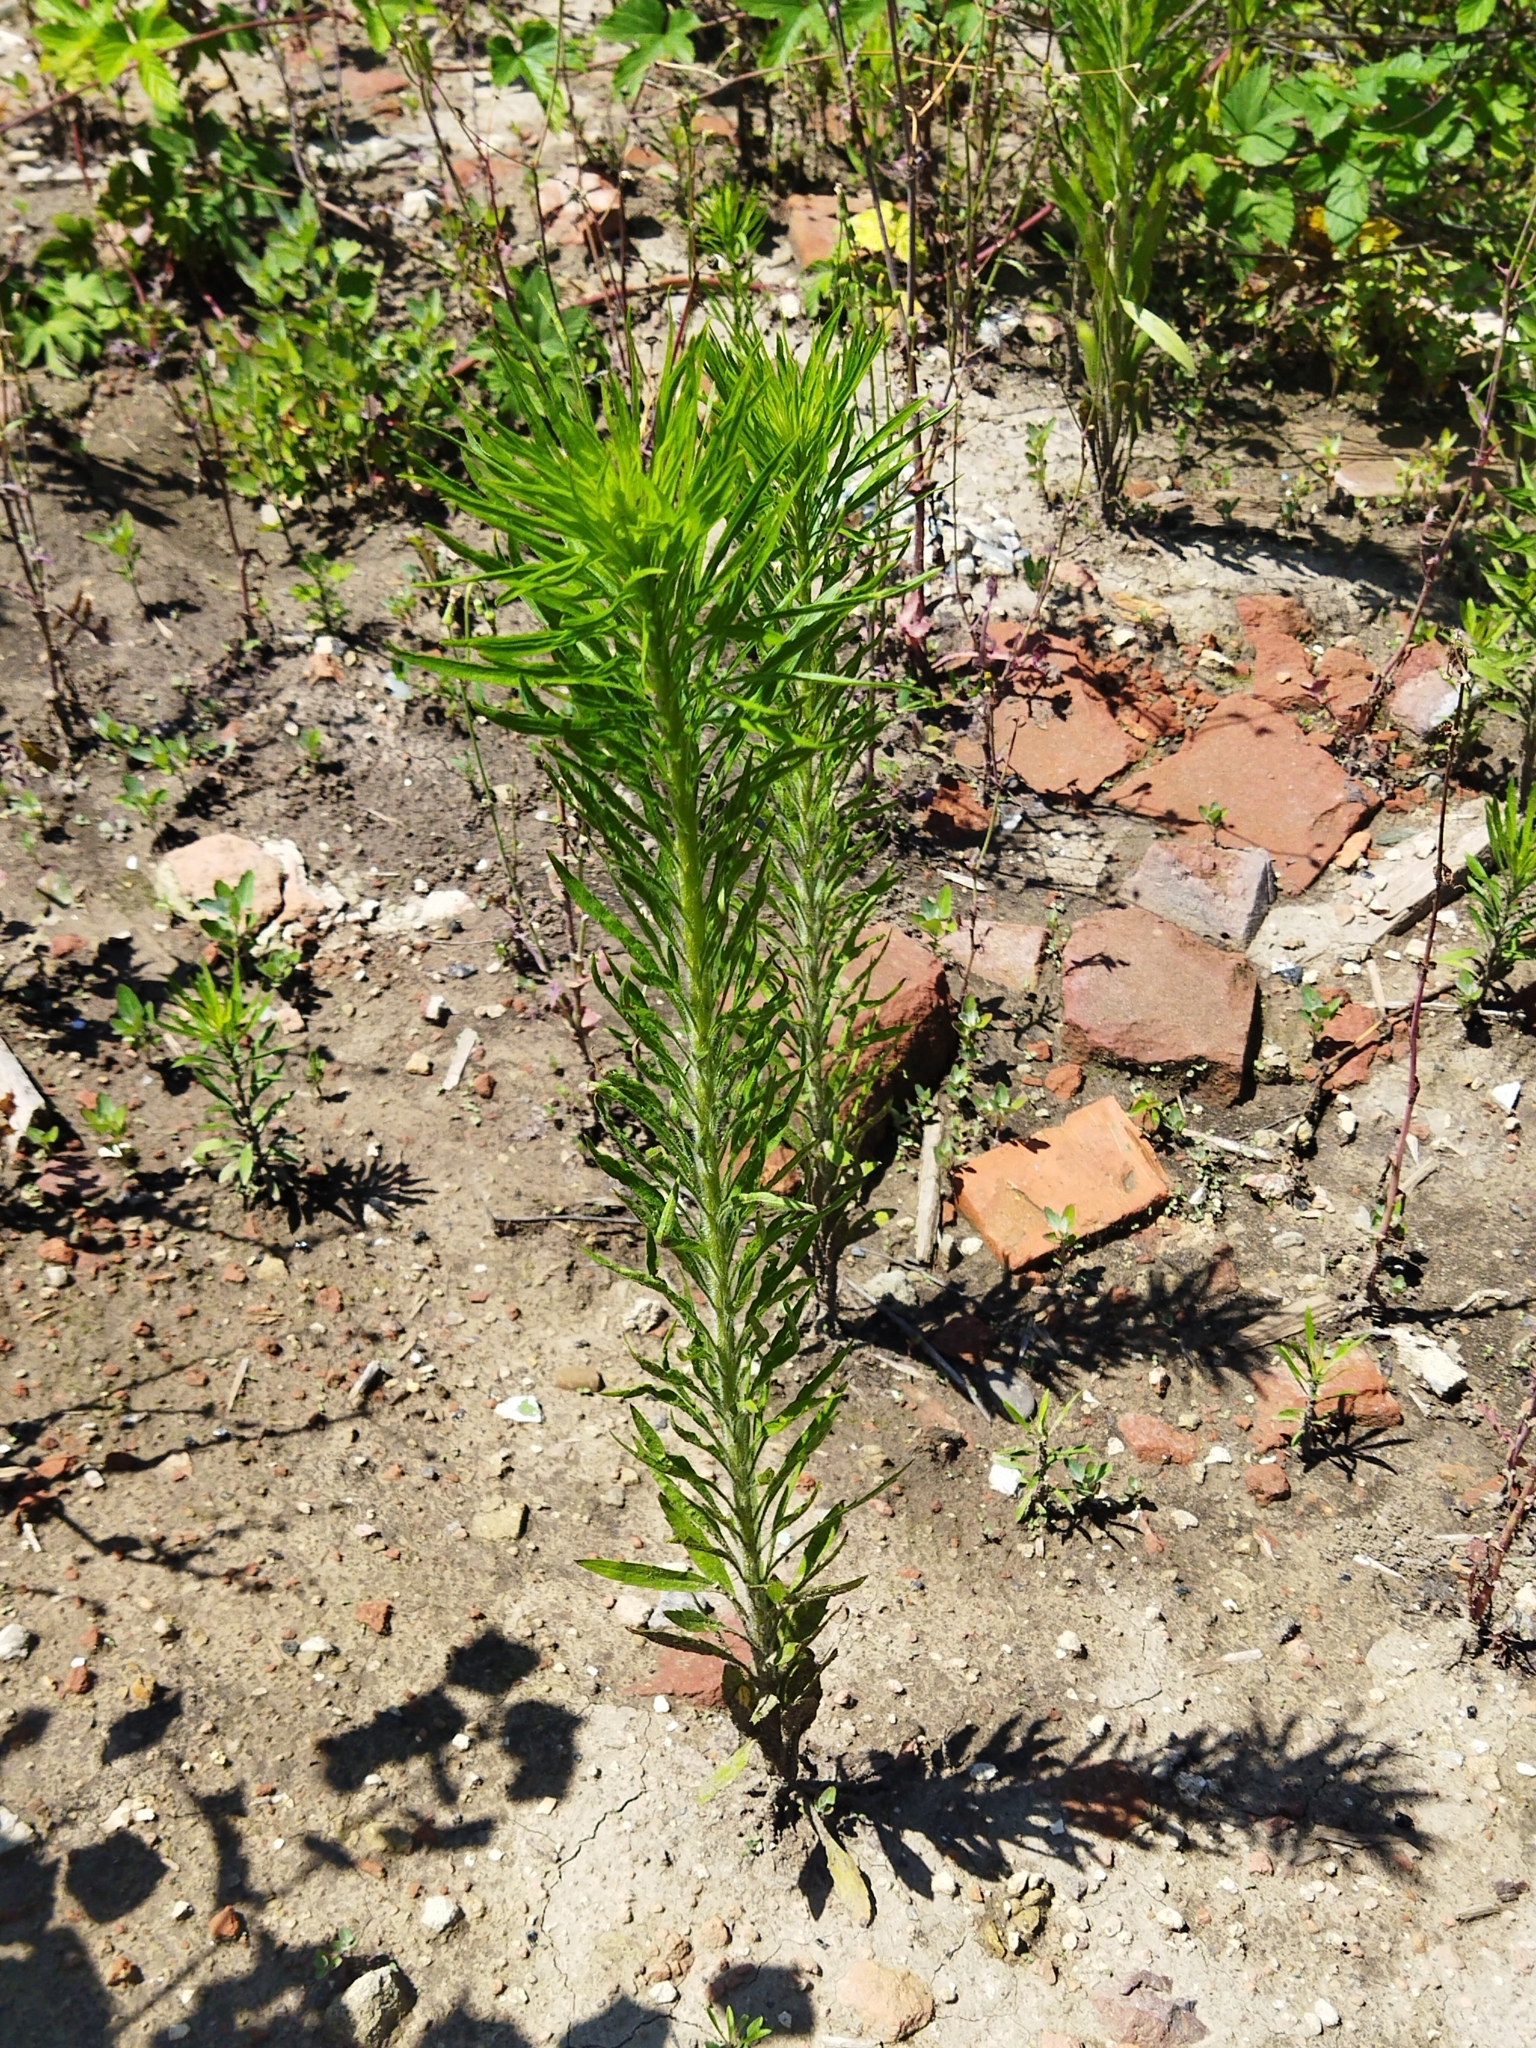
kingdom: Plantae
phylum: Tracheophyta
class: Magnoliopsida
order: Asterales
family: Asteraceae
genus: Erigeron
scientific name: Erigeron canadensis
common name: Canadian fleabane
